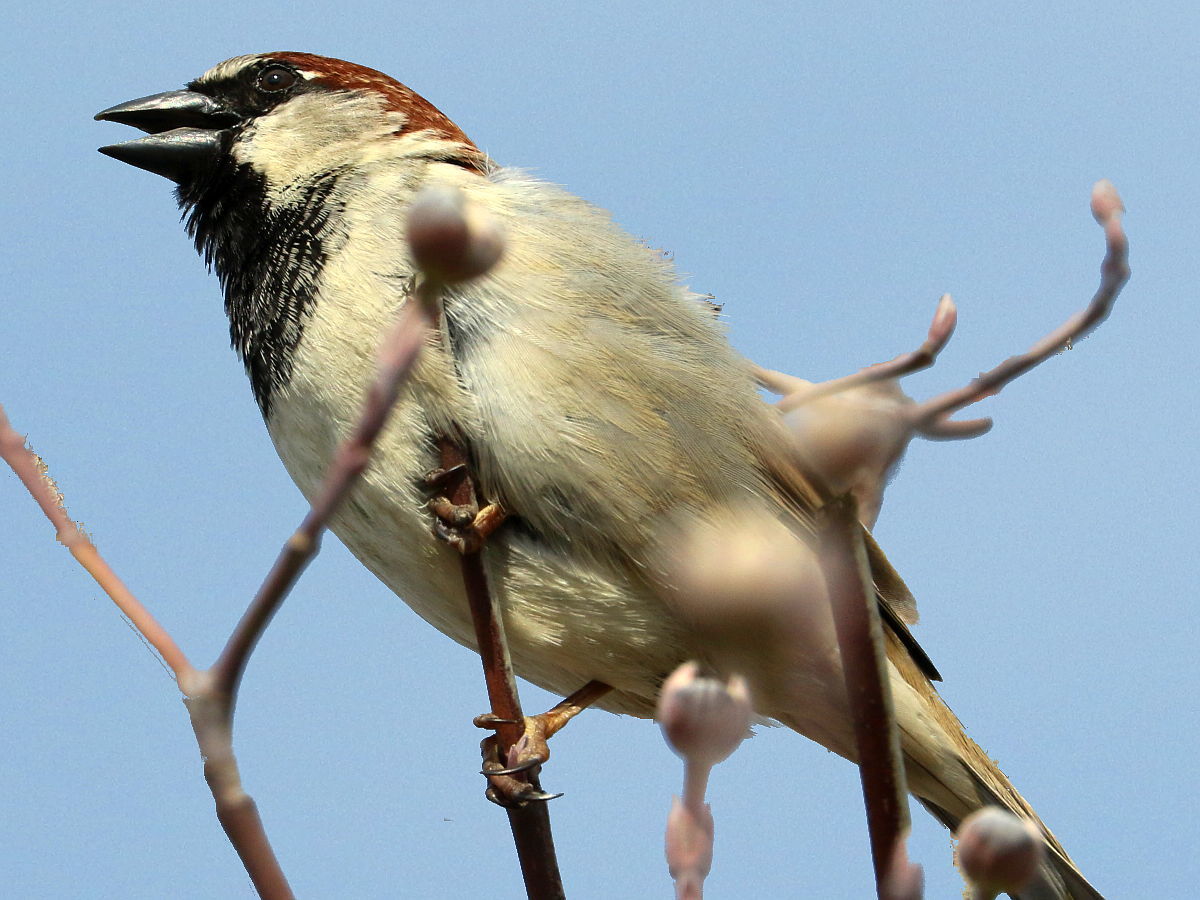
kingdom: Animalia
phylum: Chordata
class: Aves
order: Passeriformes
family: Passeridae
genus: Passer
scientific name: Passer domesticus
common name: House sparrow
